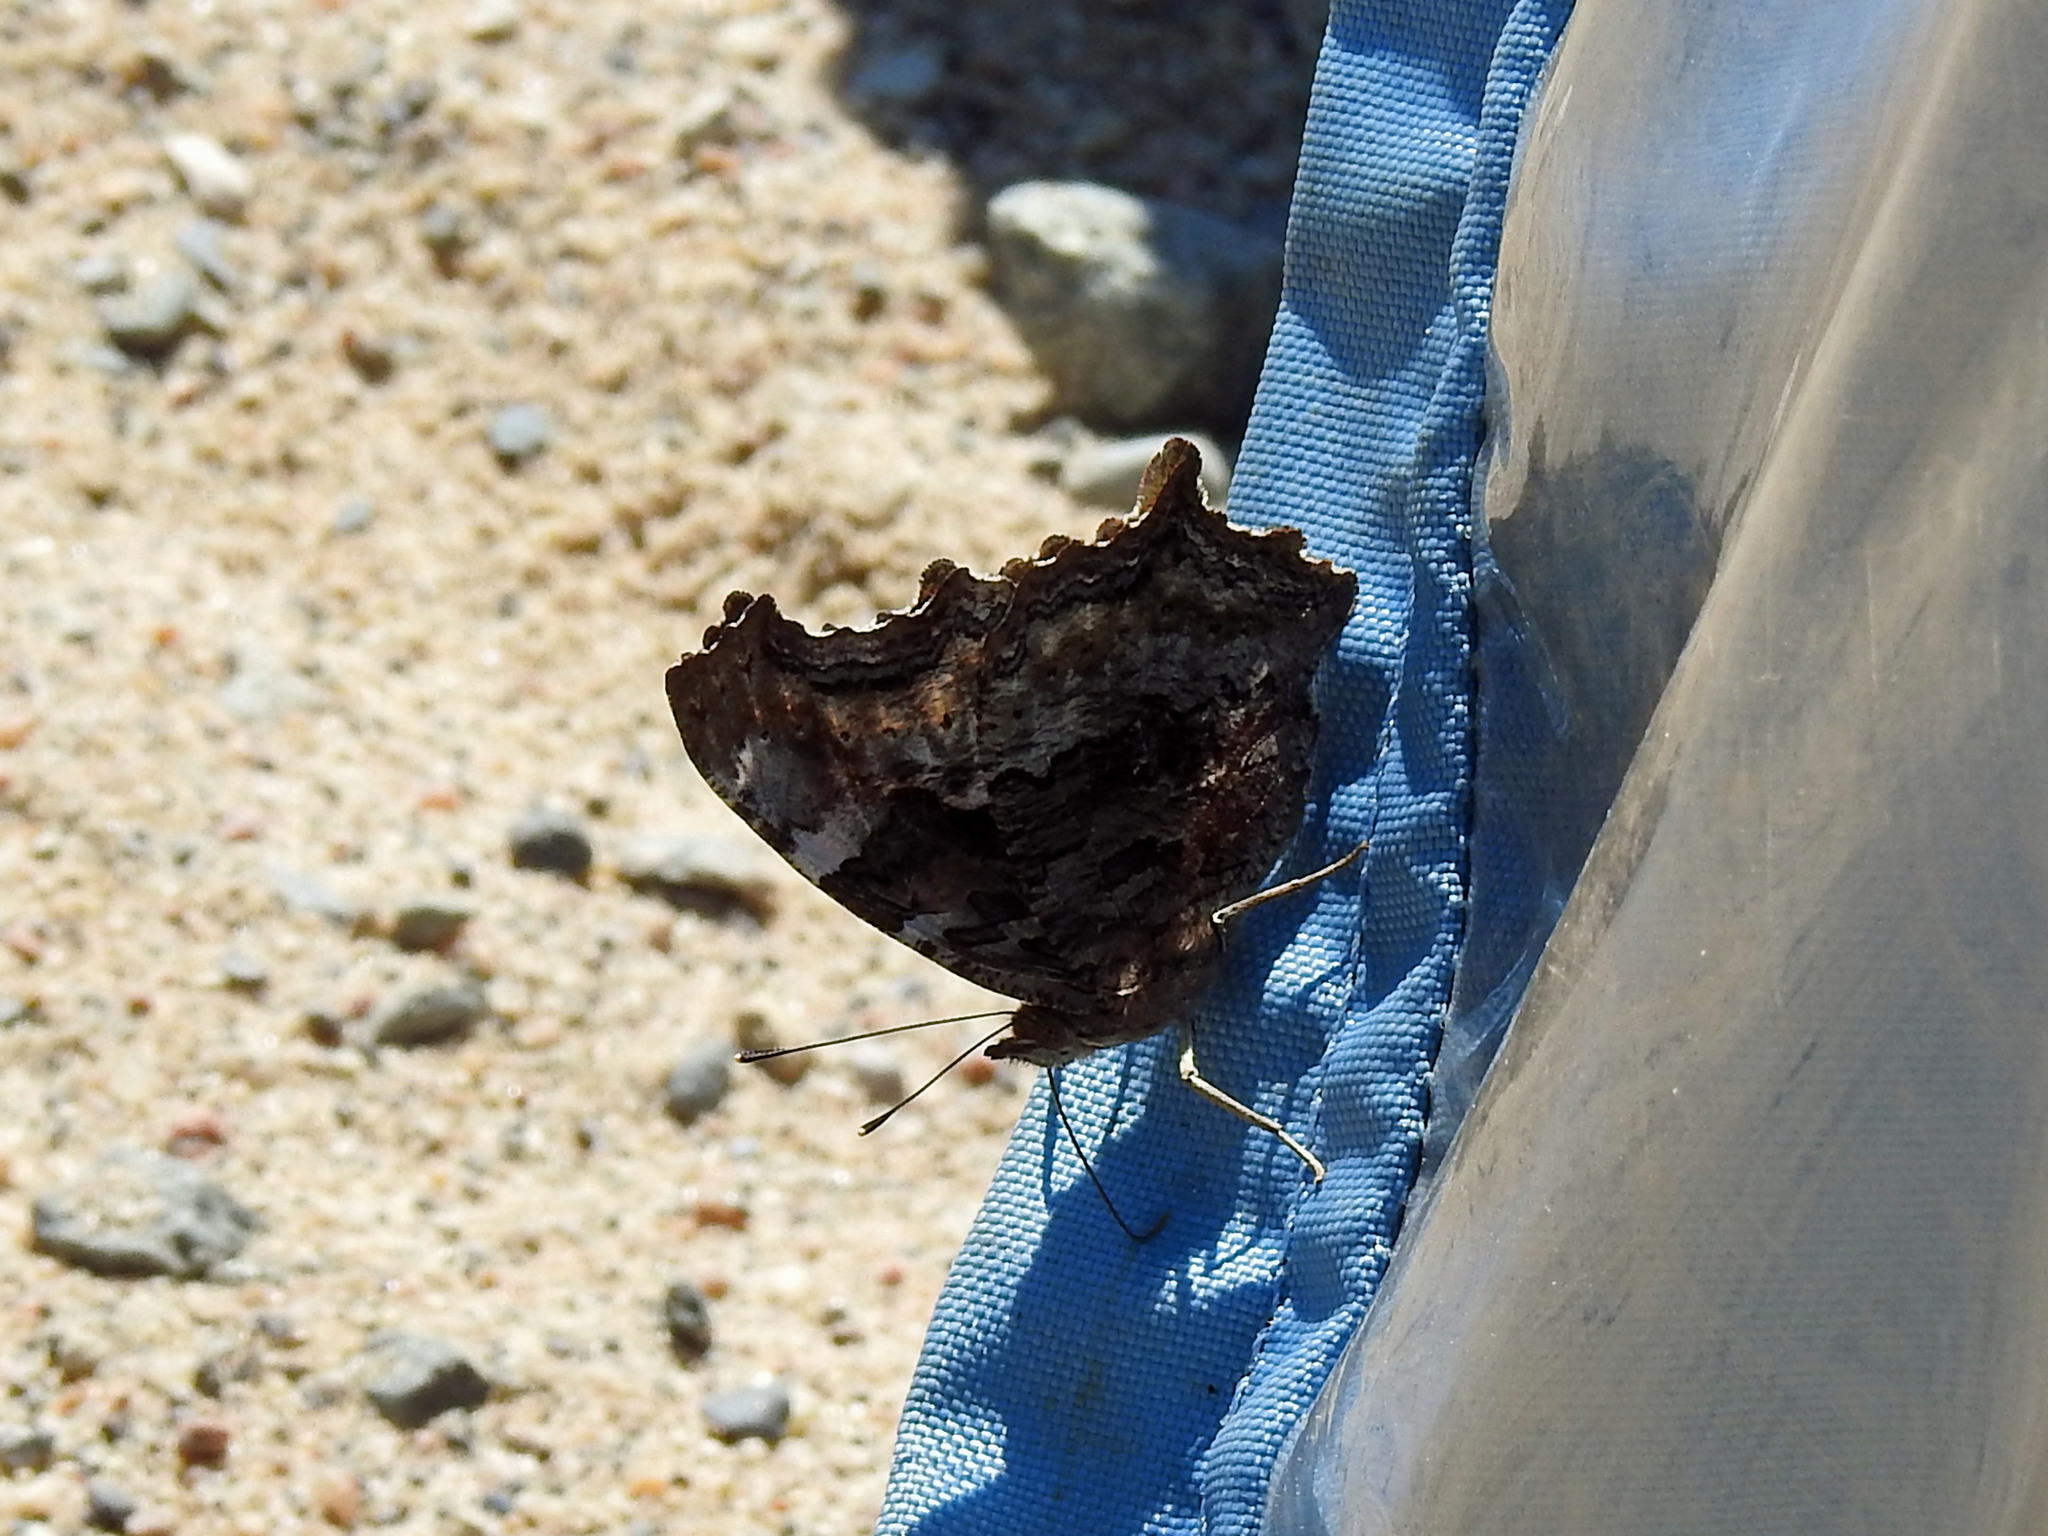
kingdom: Animalia
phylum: Arthropoda
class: Insecta
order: Lepidoptera
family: Nymphalidae
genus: Polygonia
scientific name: Polygonia vaualbum
